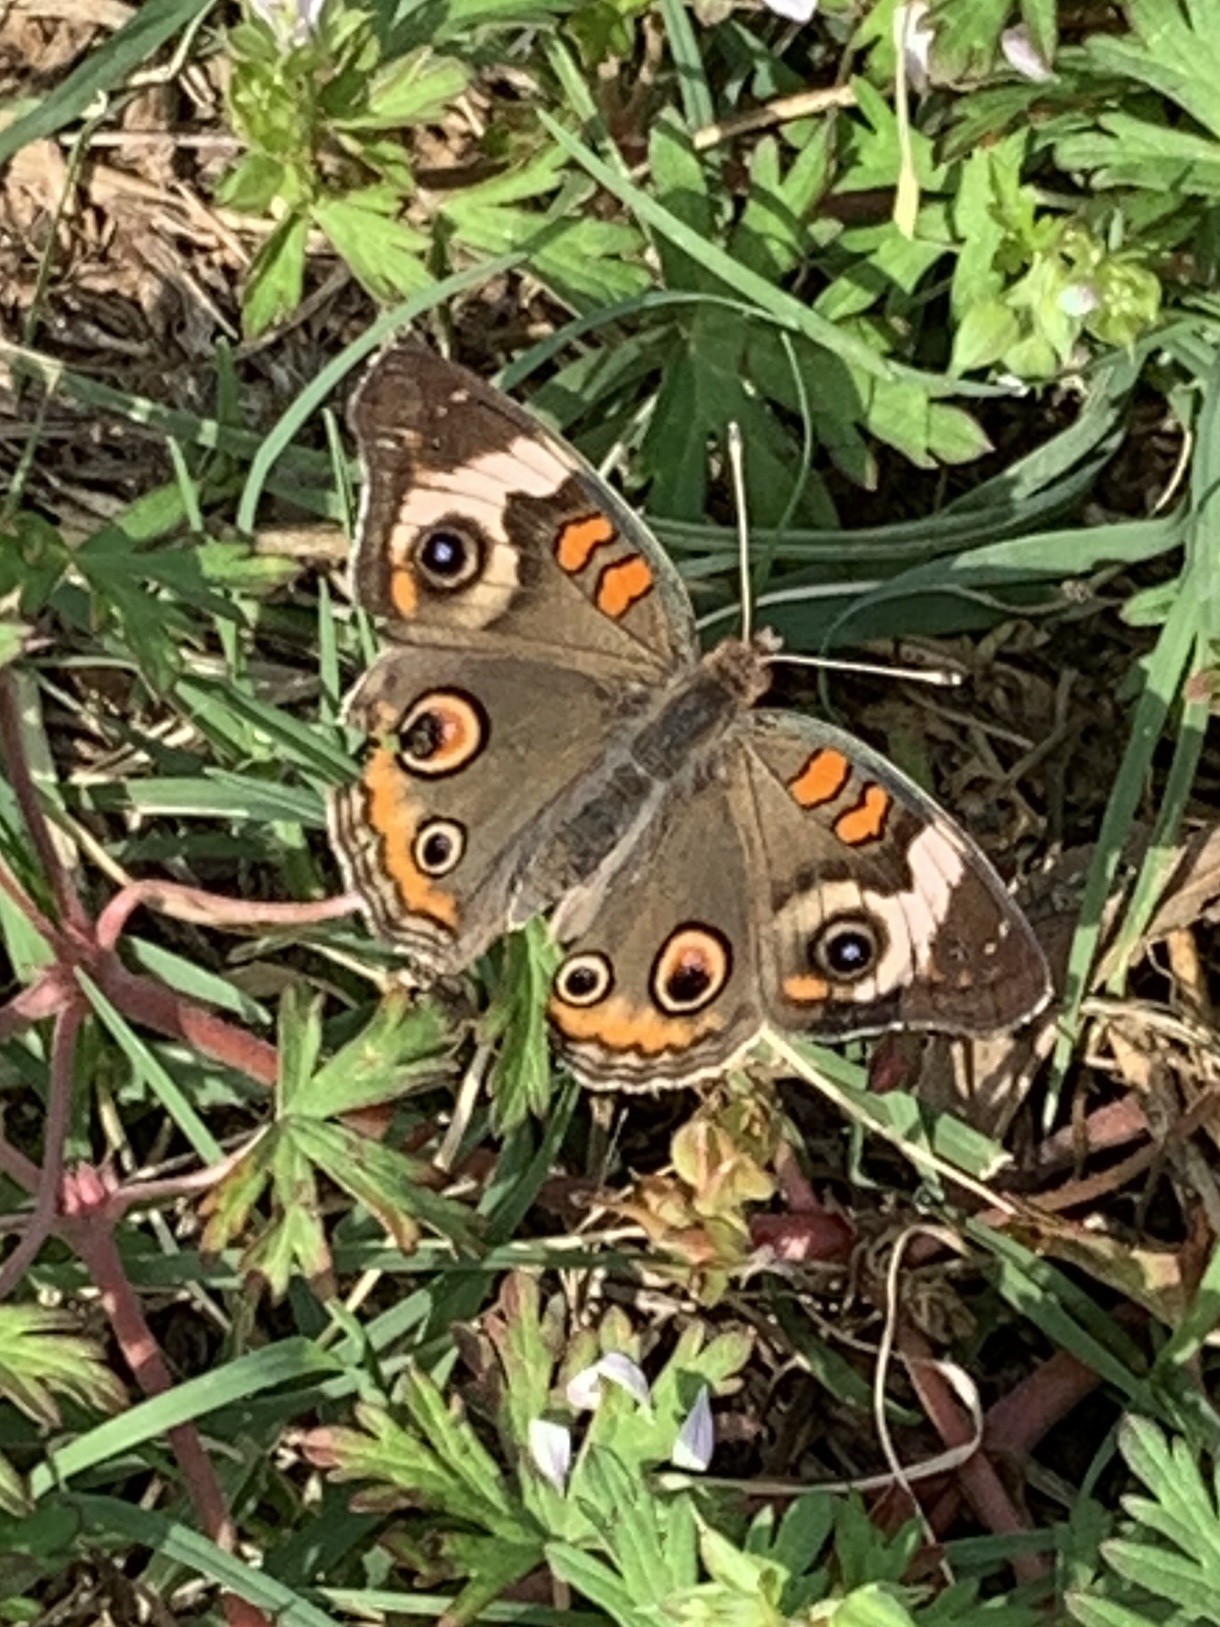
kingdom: Animalia
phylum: Arthropoda
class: Insecta
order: Lepidoptera
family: Nymphalidae
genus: Junonia
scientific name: Junonia coenia
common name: Common buckeye
